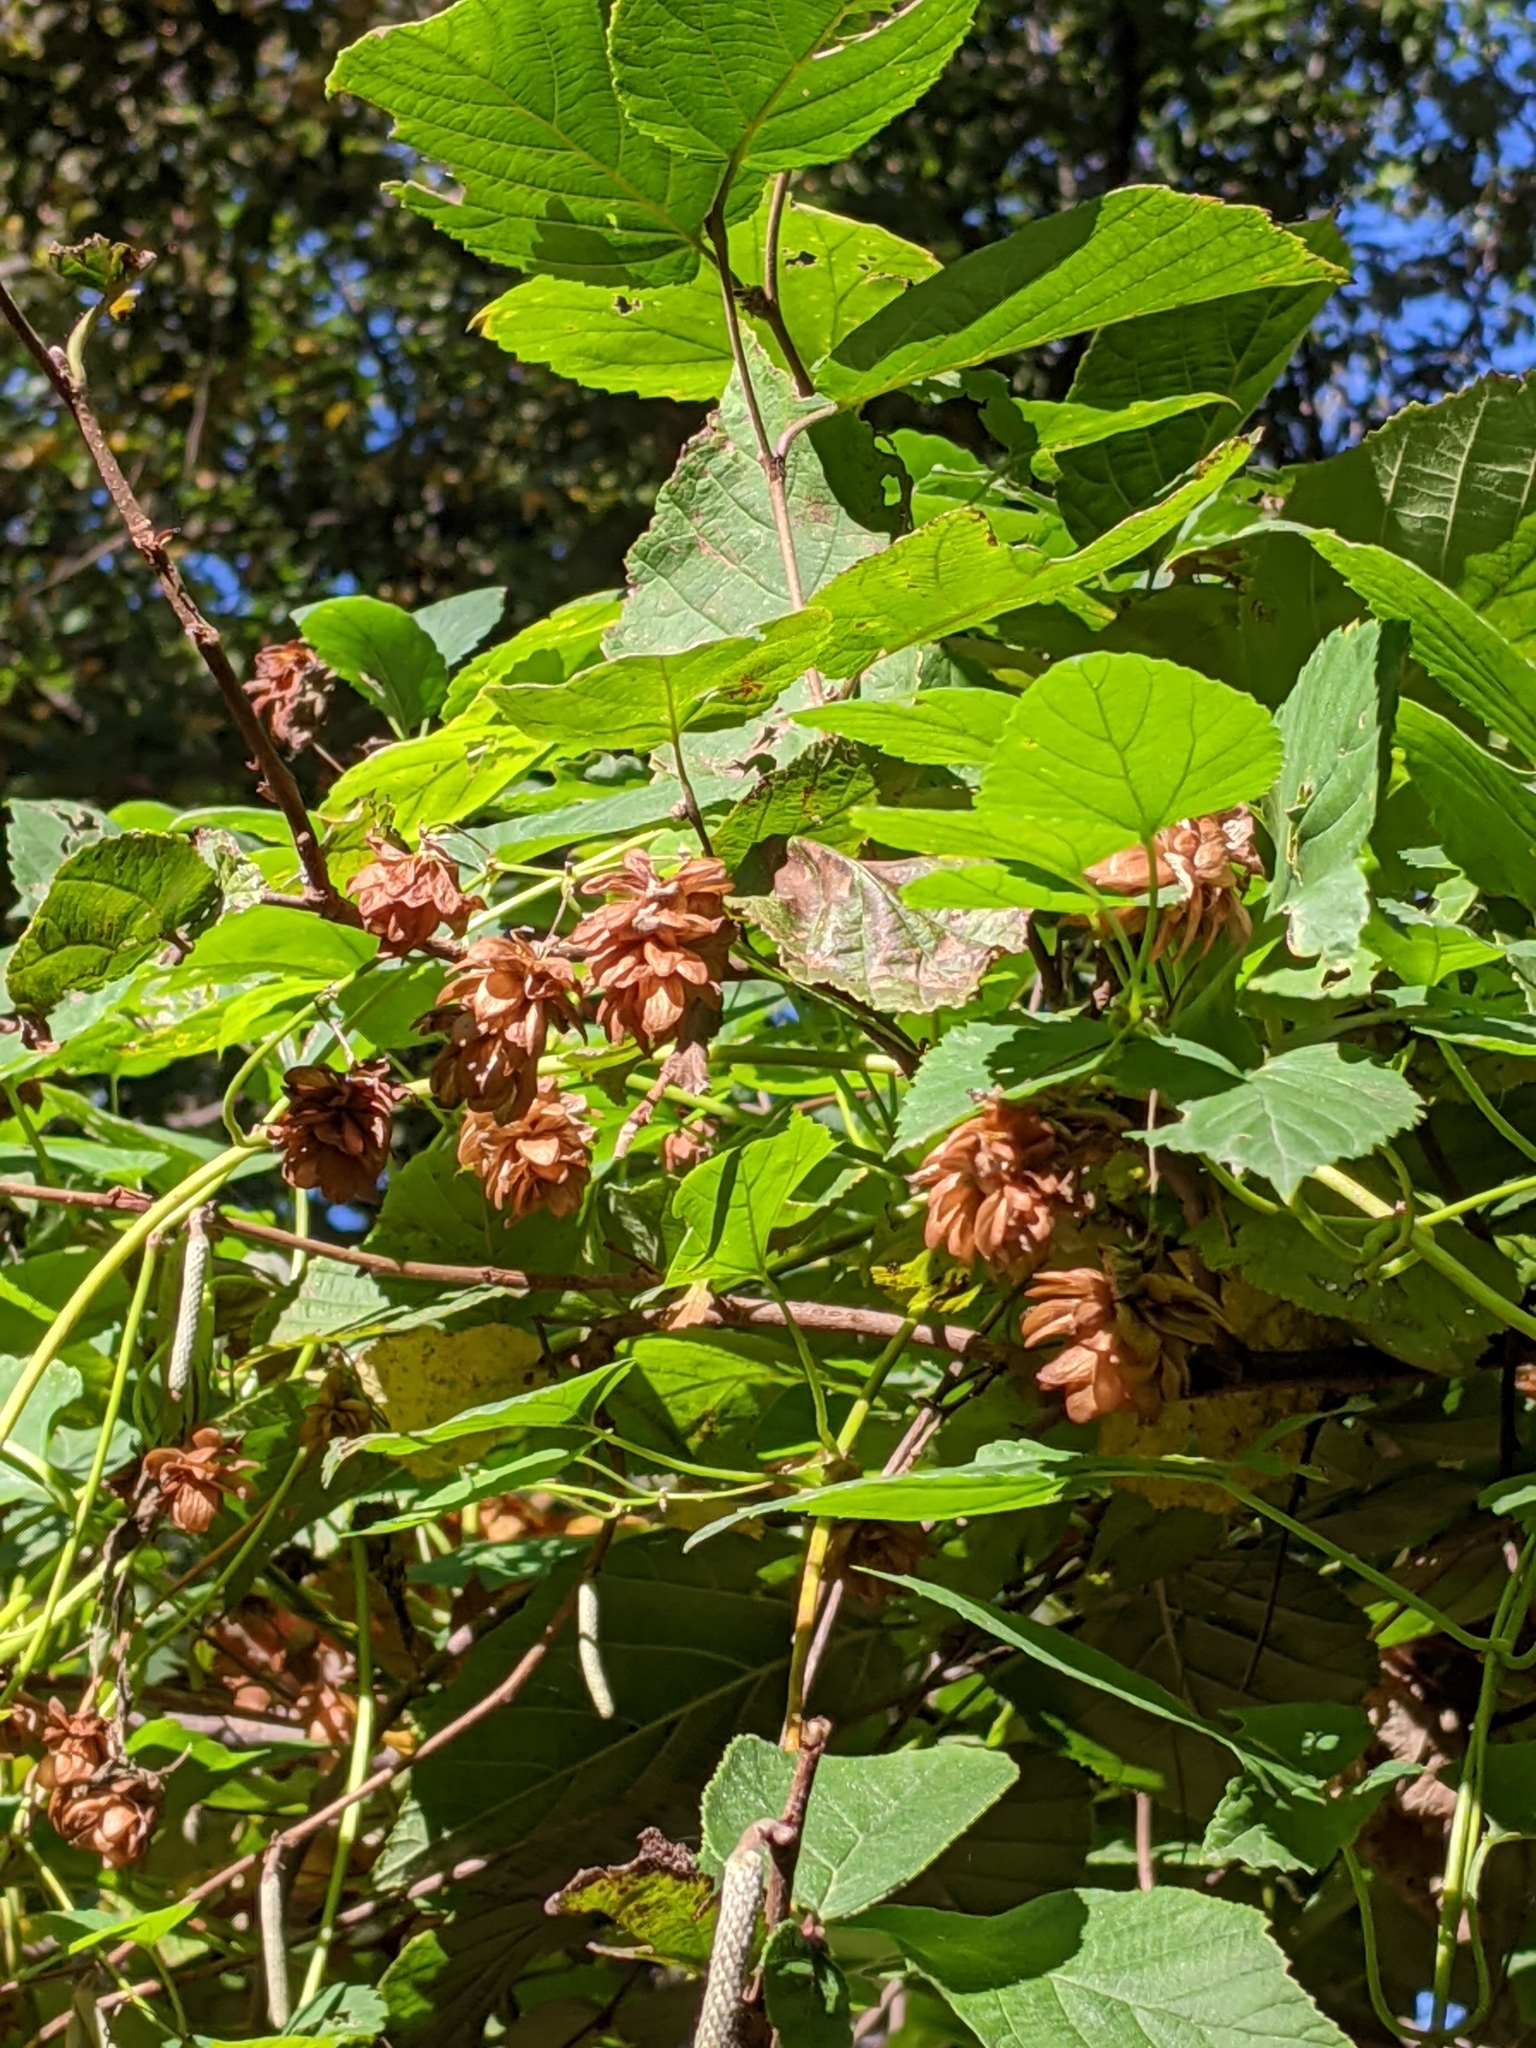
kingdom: Plantae
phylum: Tracheophyta
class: Magnoliopsida
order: Rosales
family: Cannabaceae
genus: Humulus
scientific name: Humulus lupulus
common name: Hop
